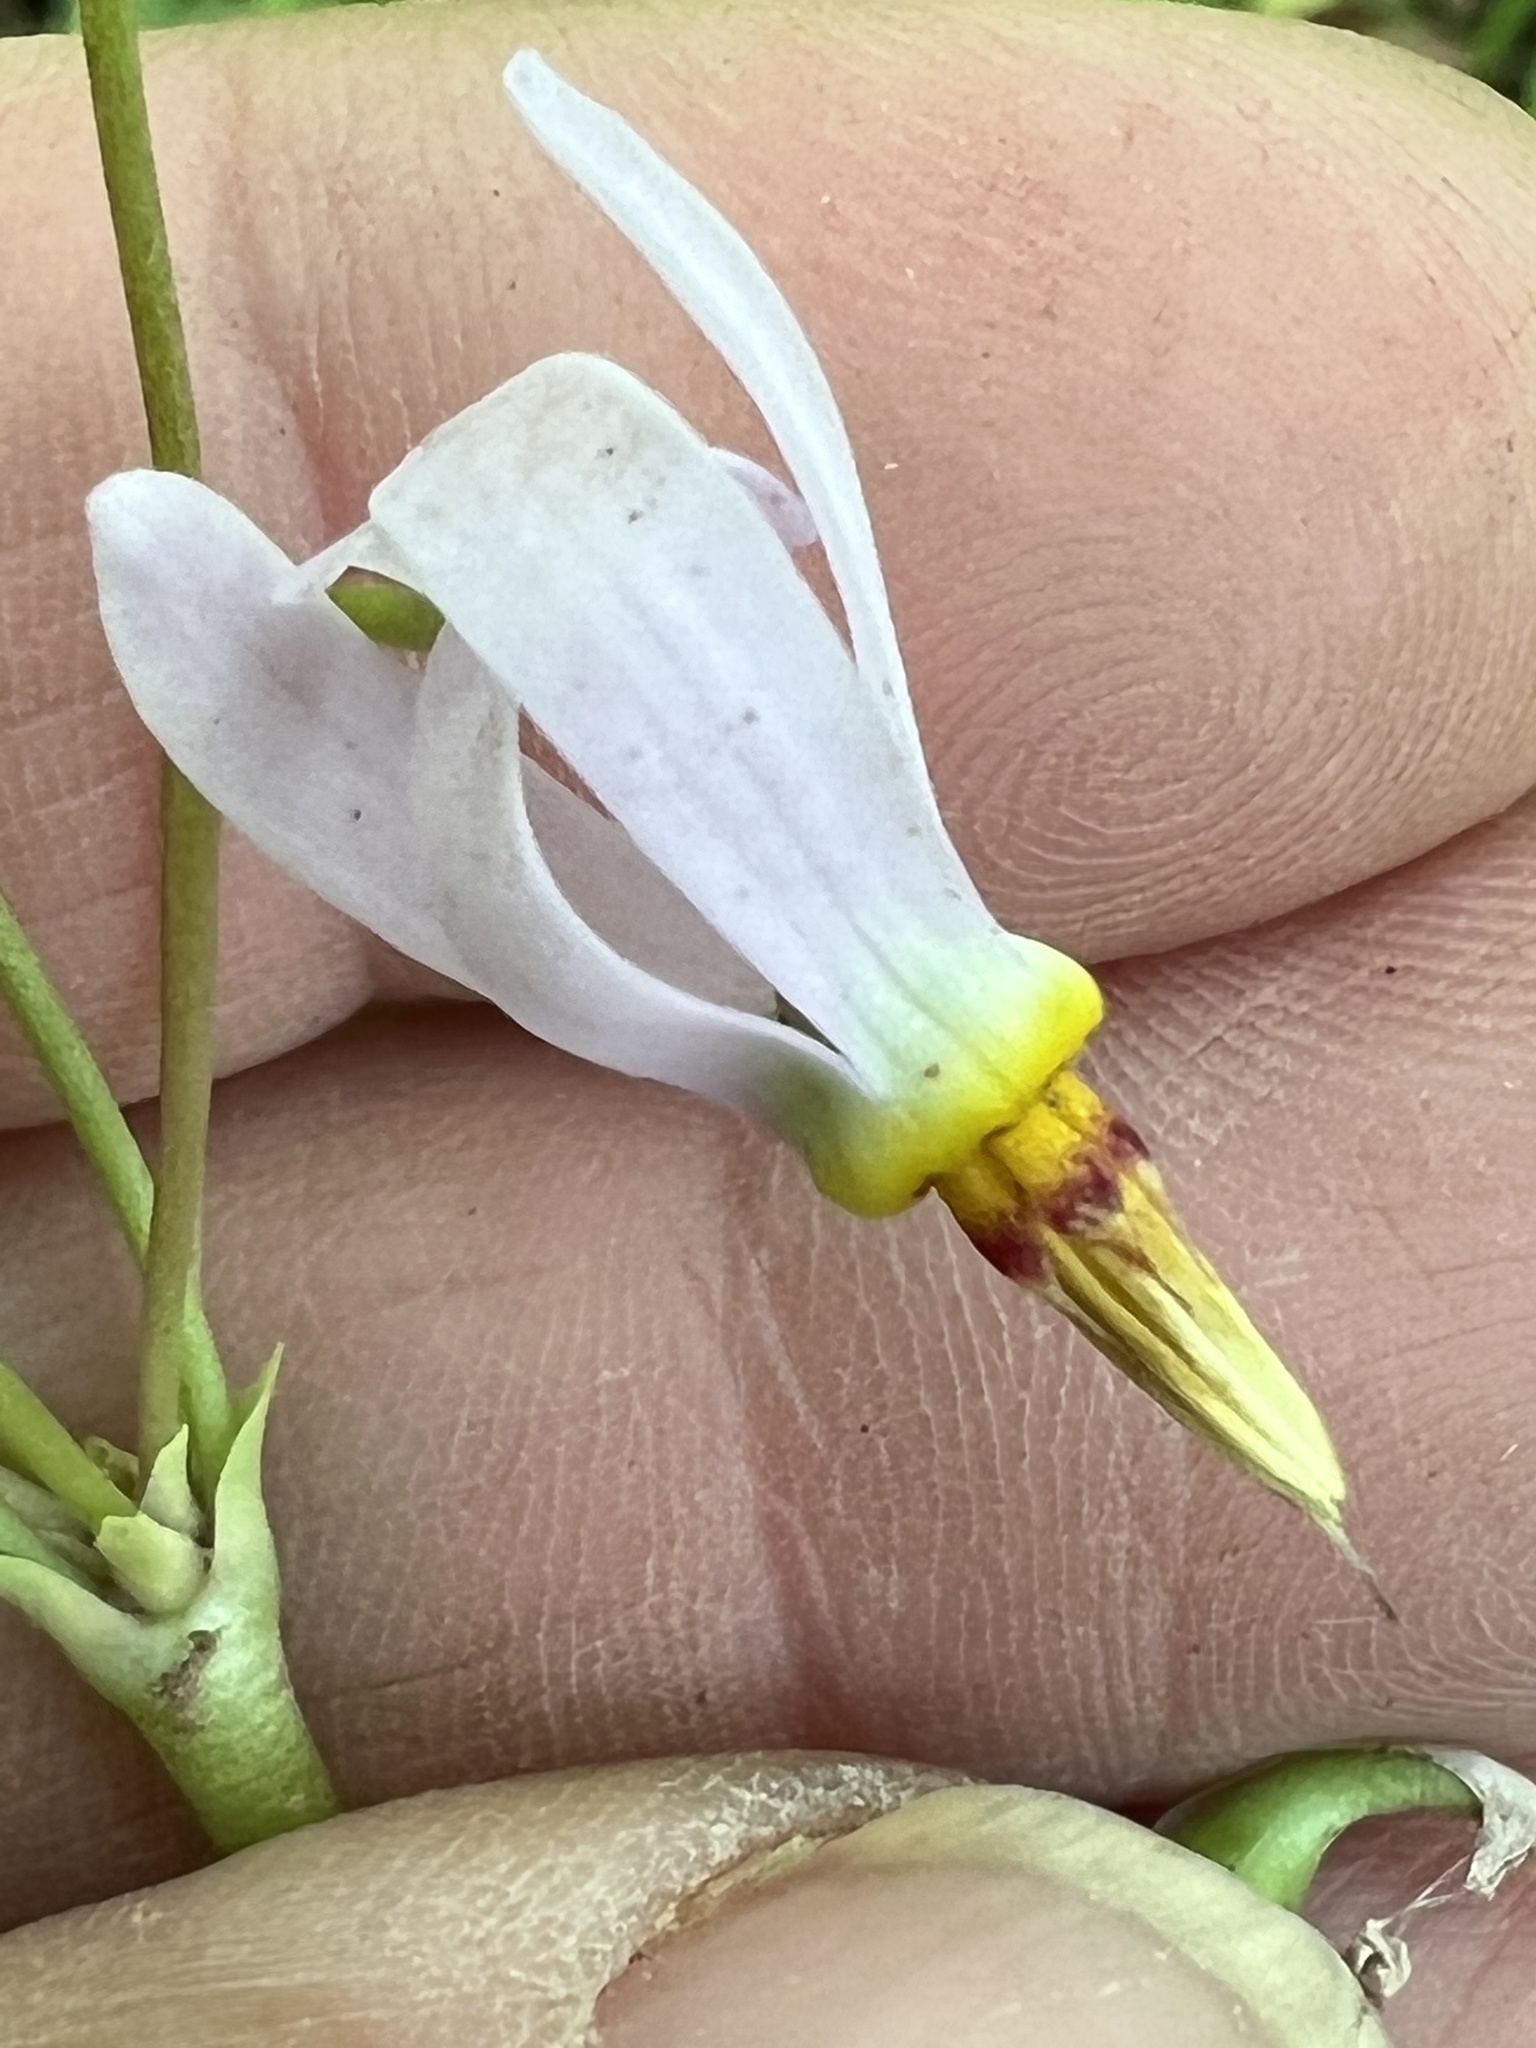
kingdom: Plantae
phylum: Tracheophyta
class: Magnoliopsida
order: Ericales
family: Primulaceae
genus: Dodecatheon
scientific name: Dodecatheon meadia
